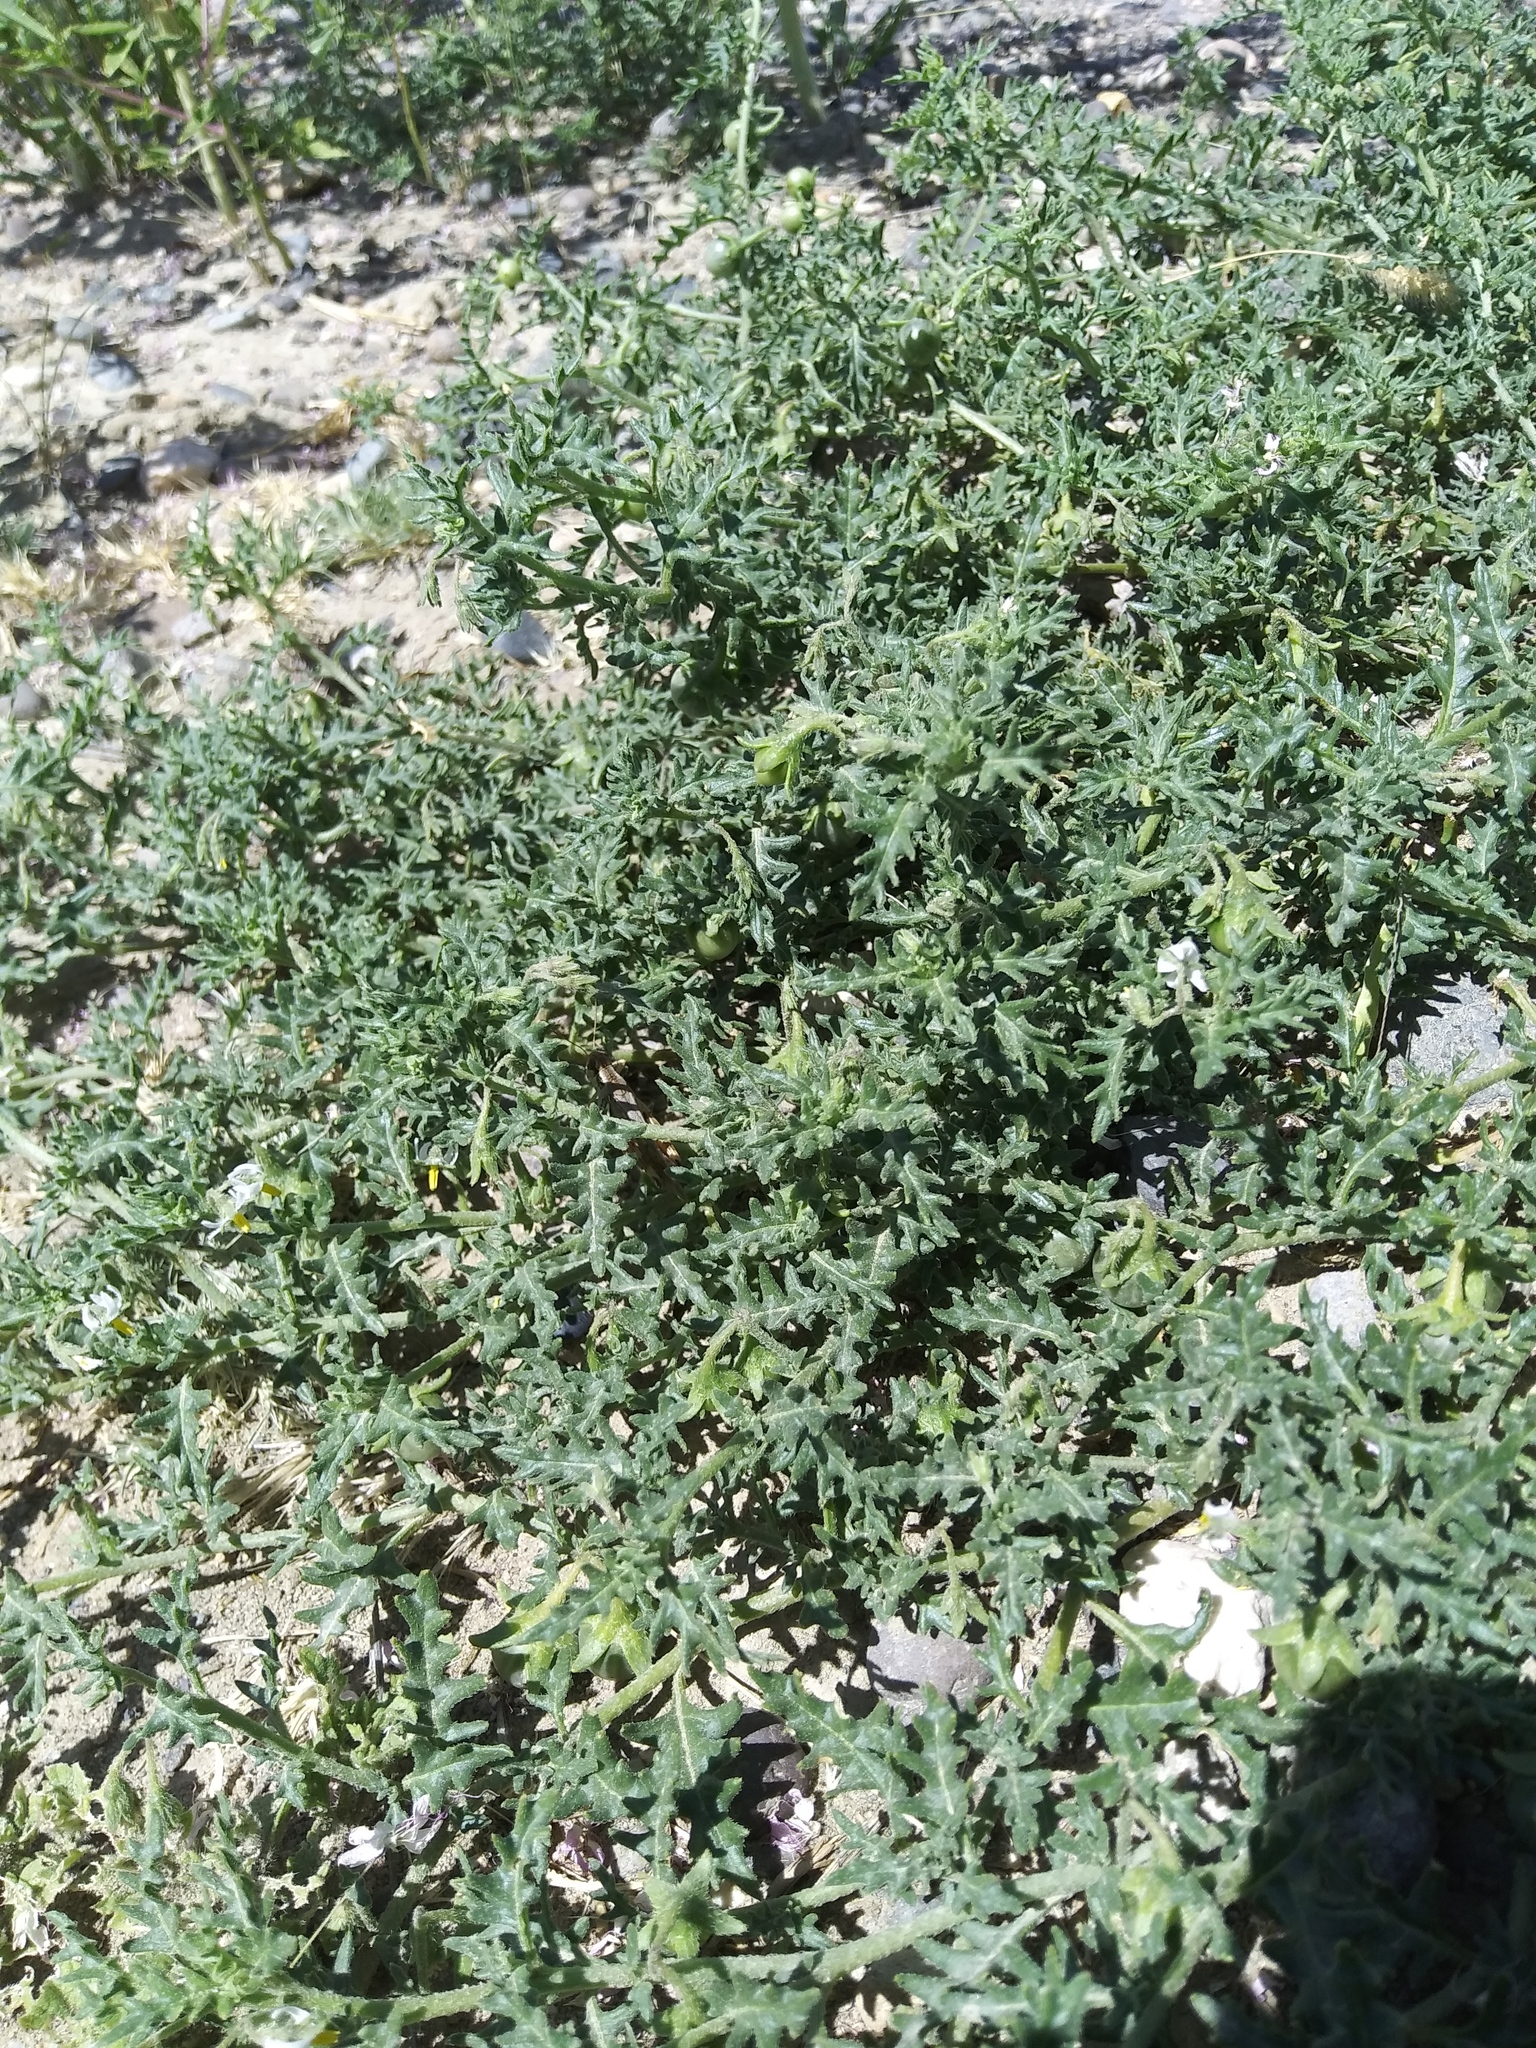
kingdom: Plantae
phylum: Tracheophyta
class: Magnoliopsida
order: Solanales
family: Solanaceae
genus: Solanum
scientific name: Solanum triflorum
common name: Small nightshade
